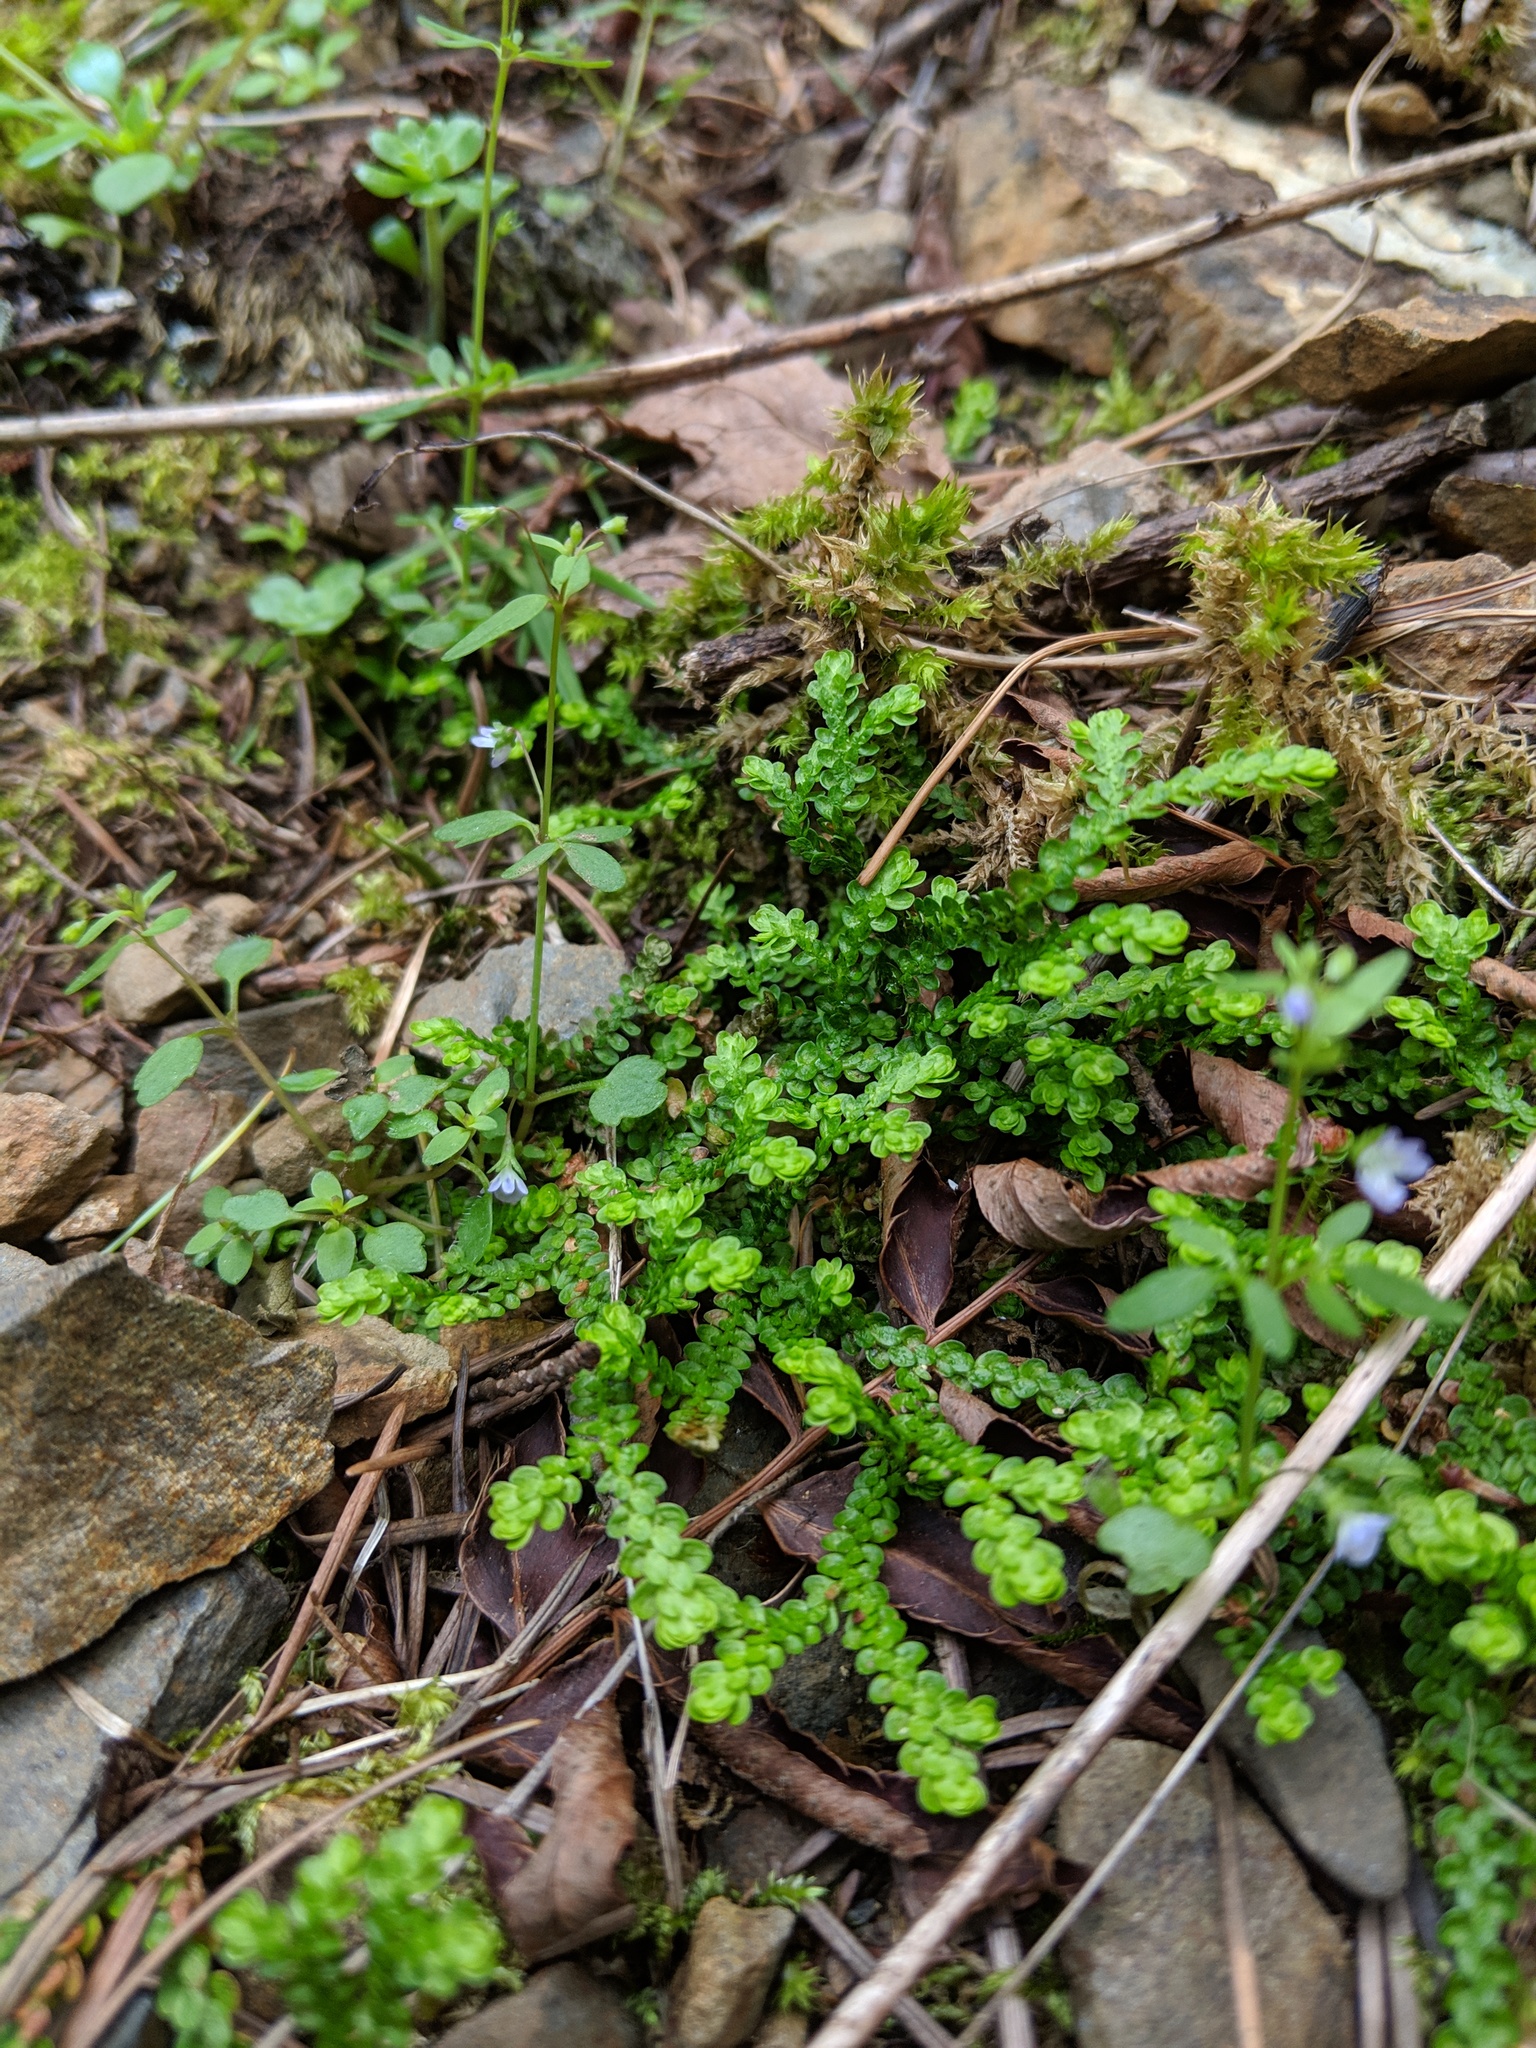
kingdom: Plantae
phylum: Tracheophyta
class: Lycopodiopsida
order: Selaginellales
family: Selaginellaceae
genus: Selaginella
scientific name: Selaginella douglasii
